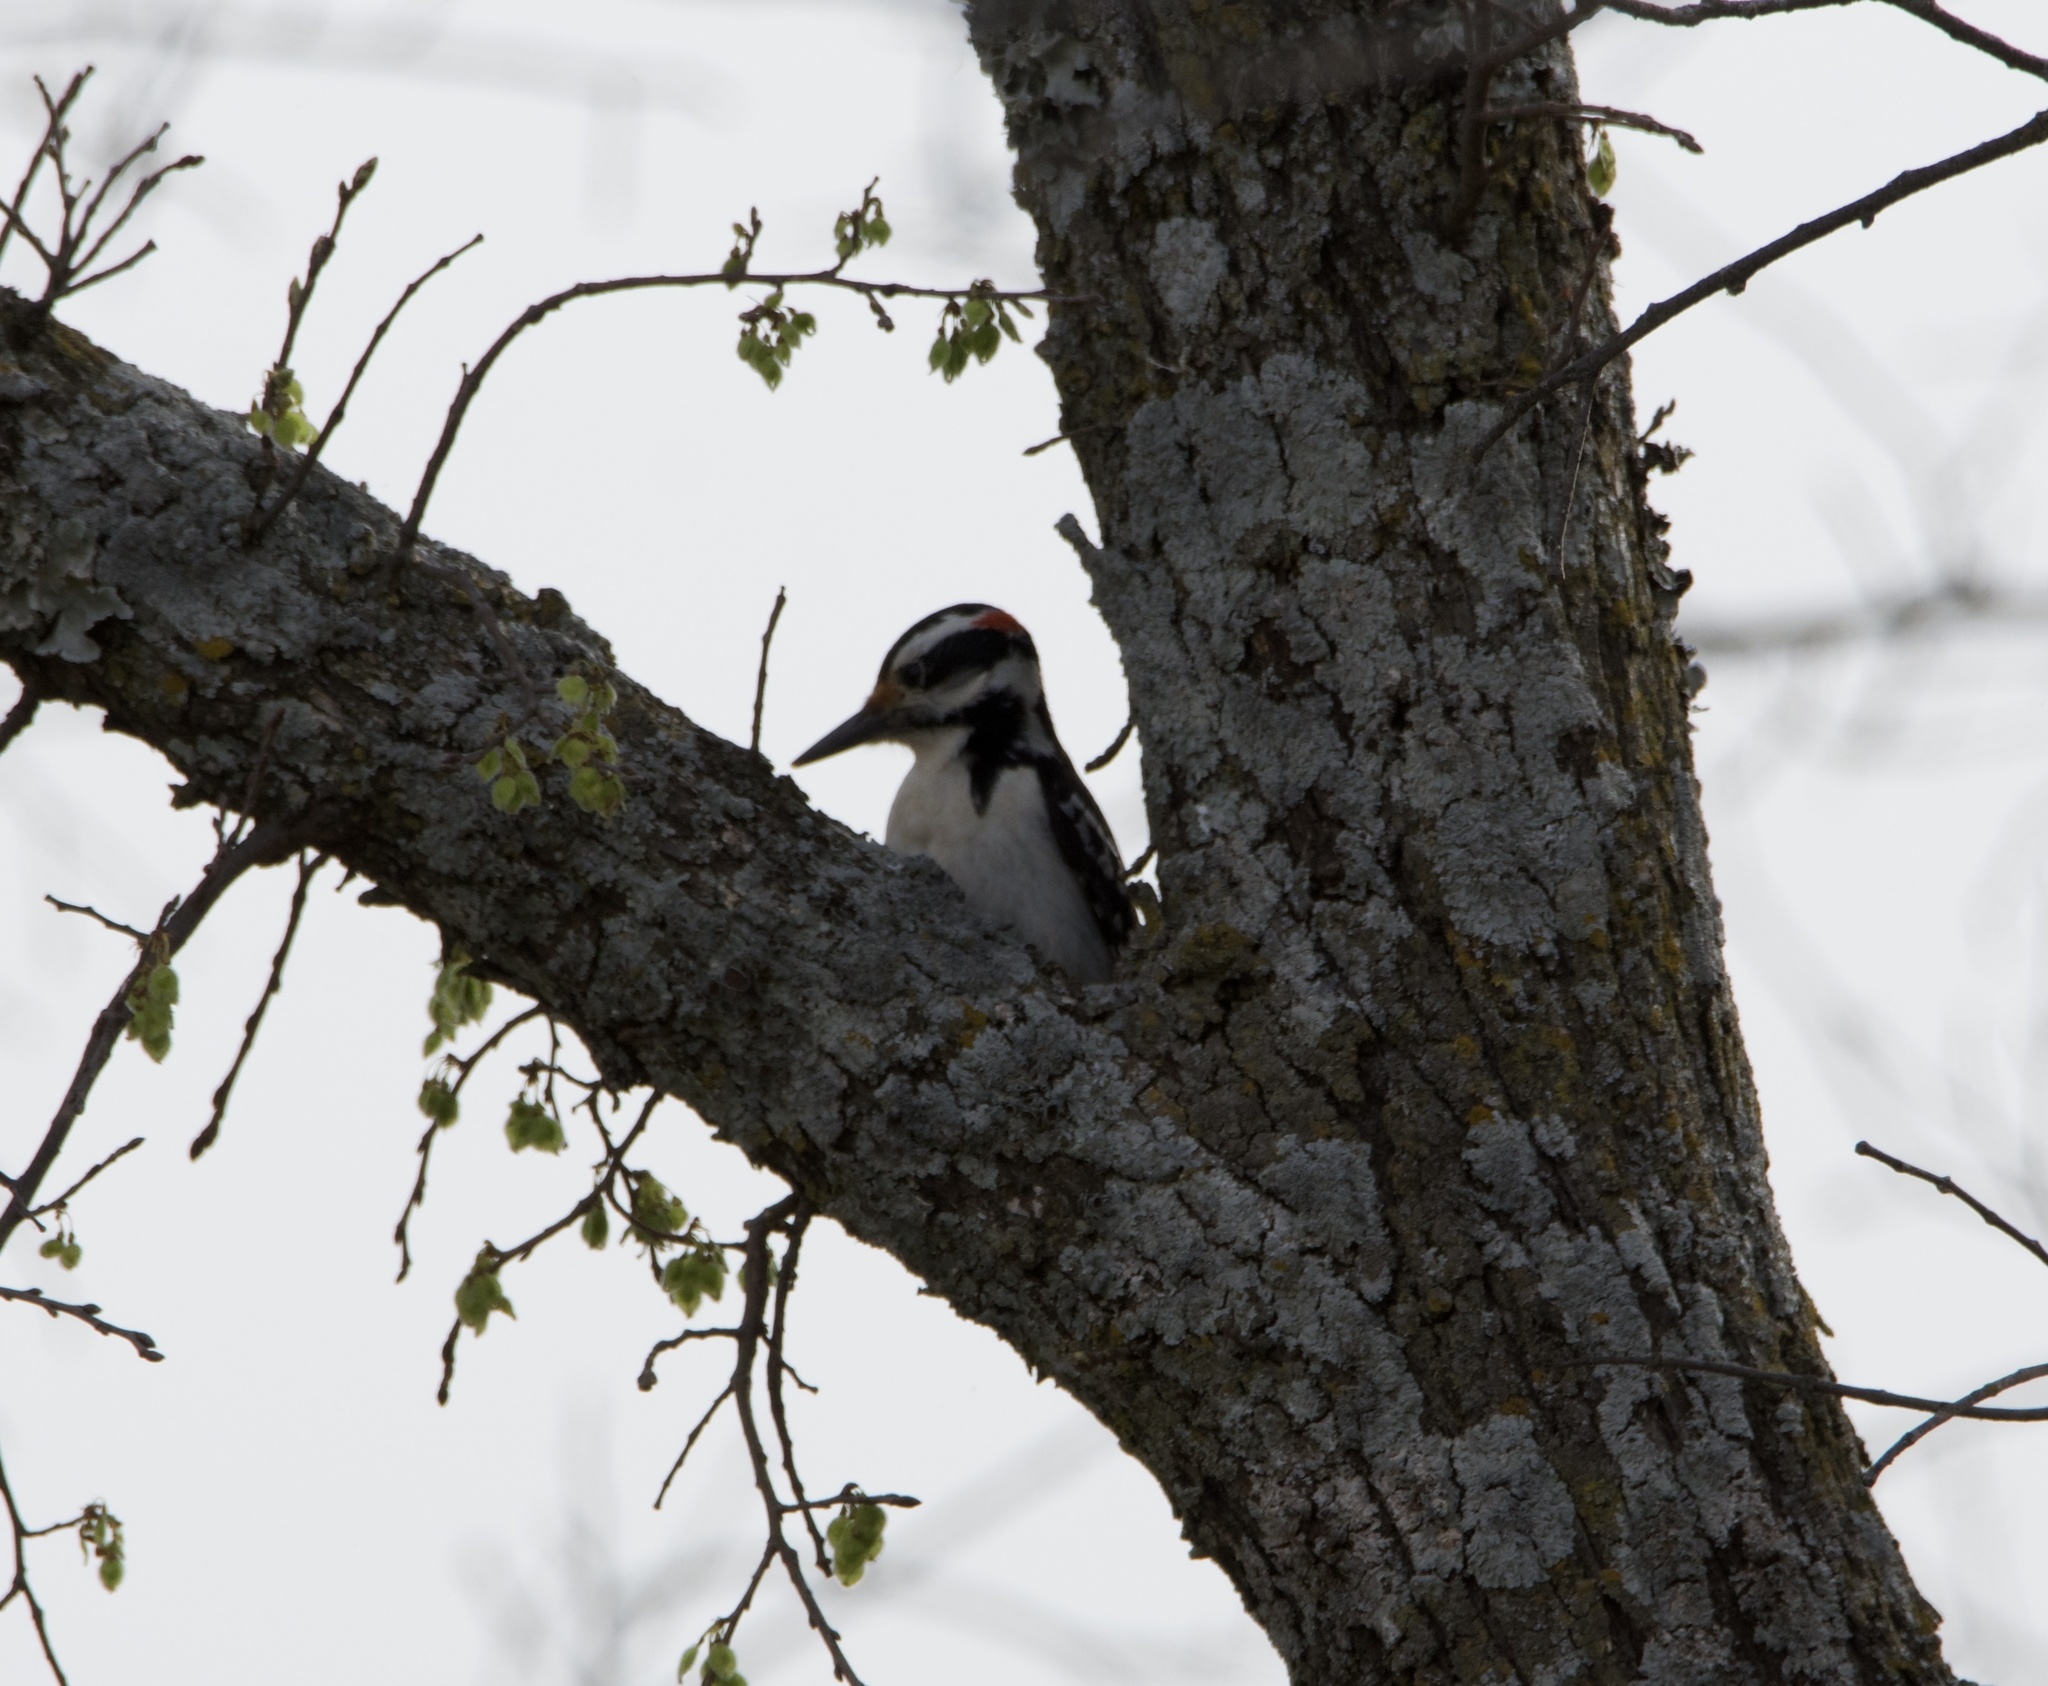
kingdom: Animalia
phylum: Chordata
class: Aves
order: Piciformes
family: Picidae
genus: Leuconotopicus
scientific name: Leuconotopicus villosus
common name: Hairy woodpecker
